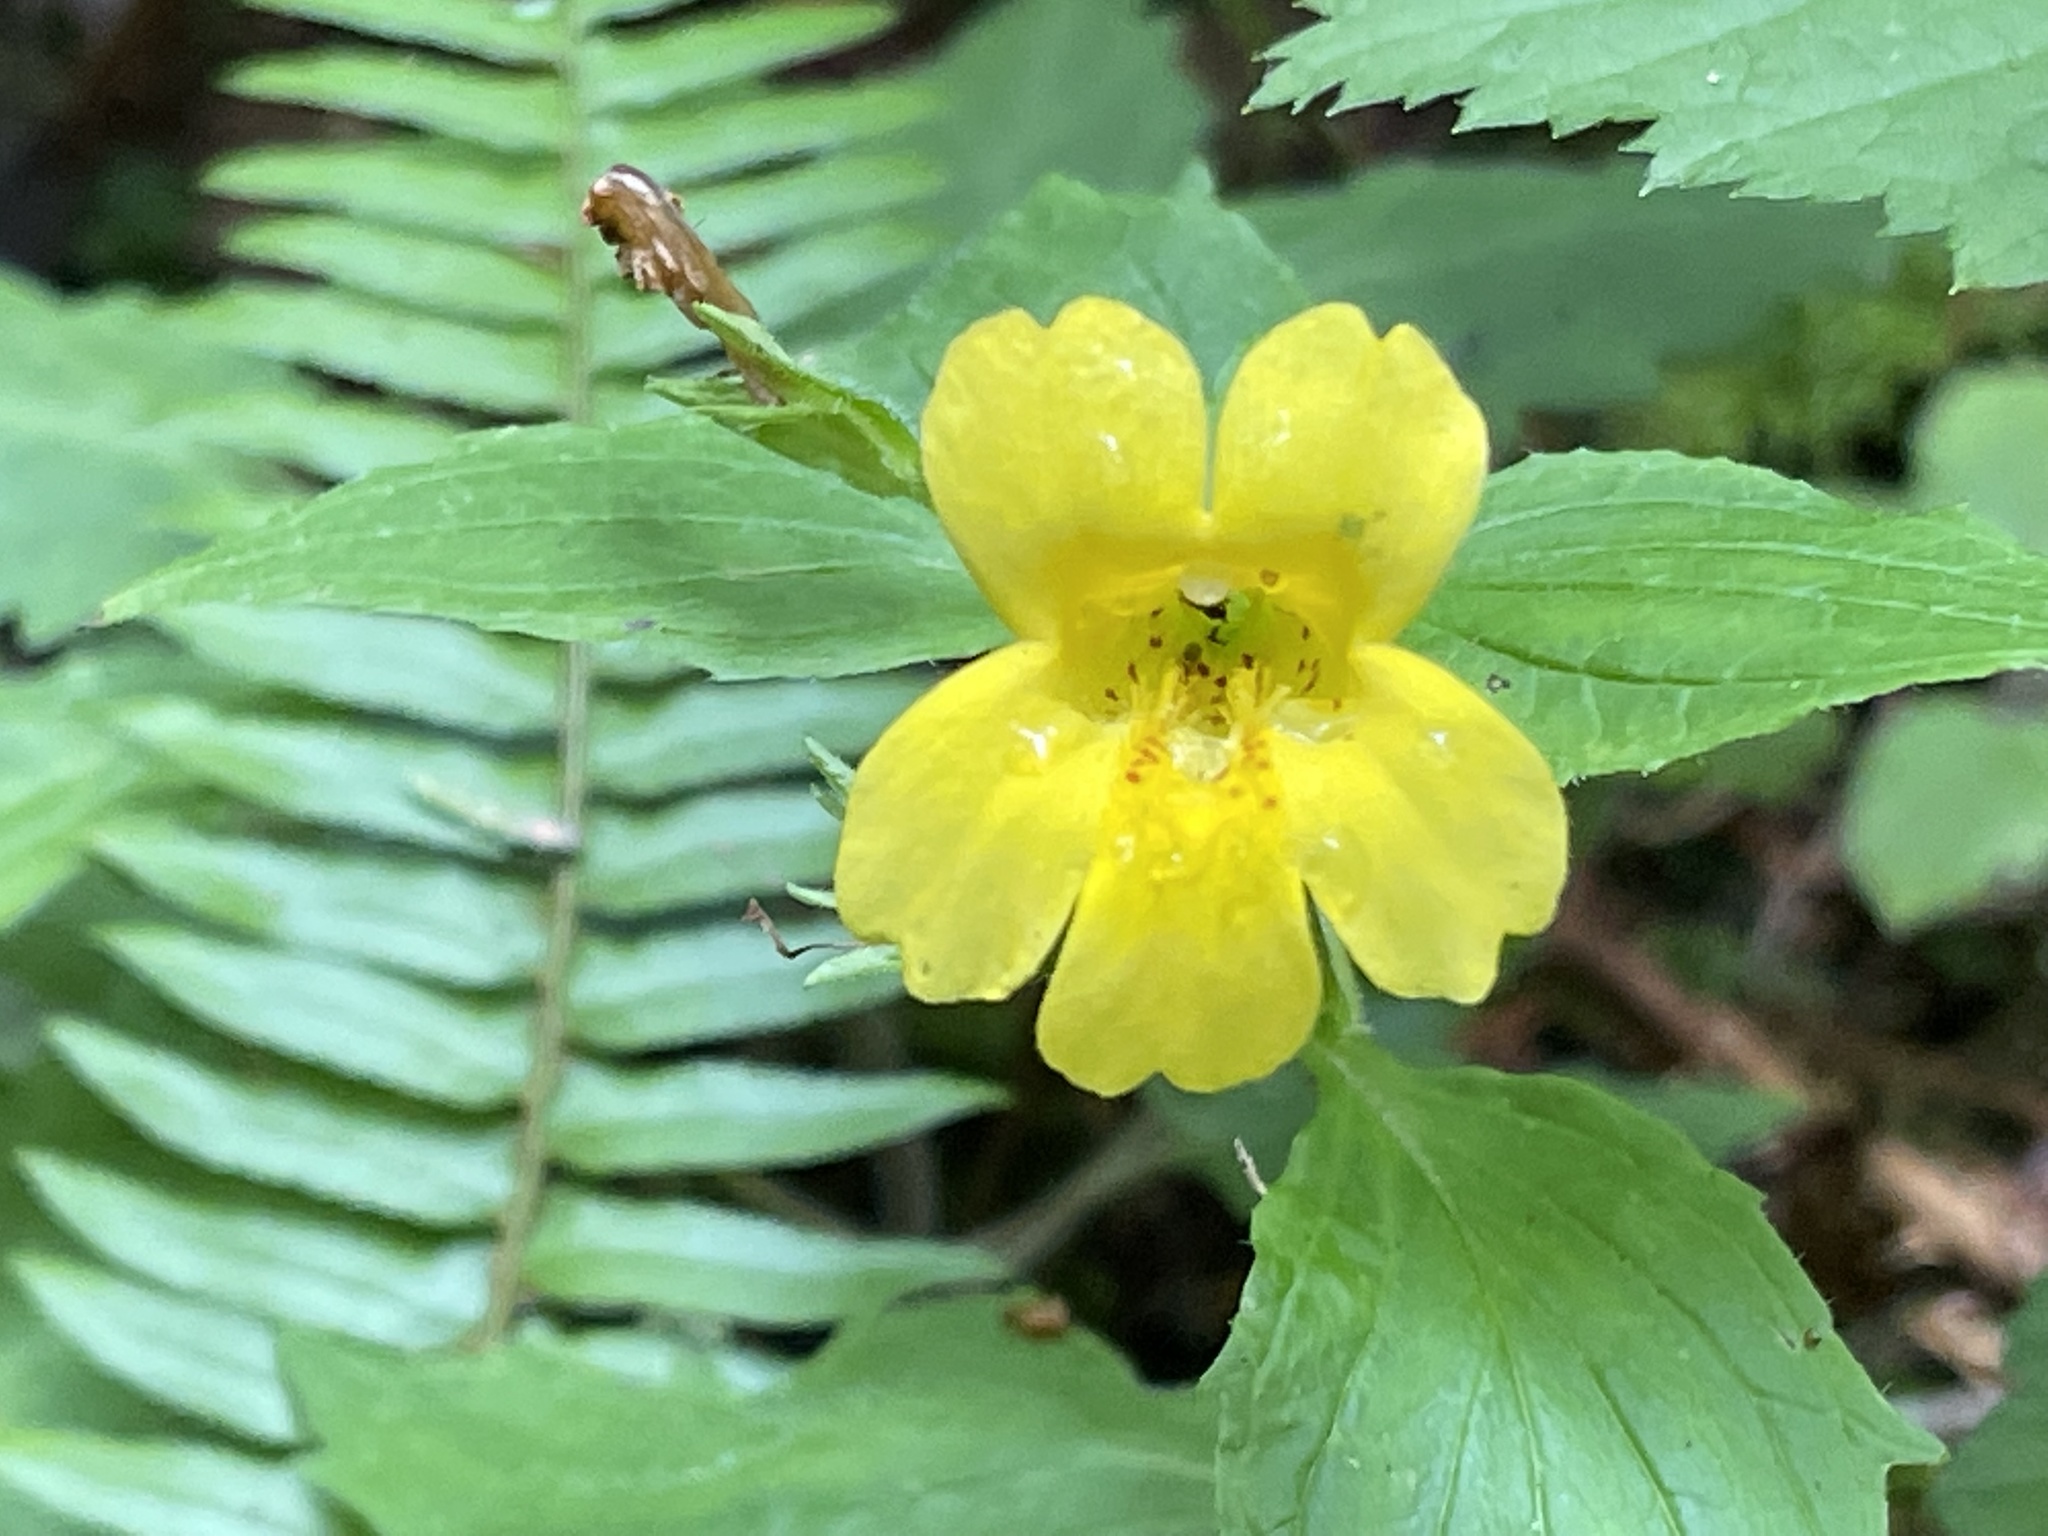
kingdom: Plantae
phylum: Tracheophyta
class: Magnoliopsida
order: Lamiales
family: Phrymaceae
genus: Erythranthe
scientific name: Erythranthe dentata
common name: Coastal monkeyflower
